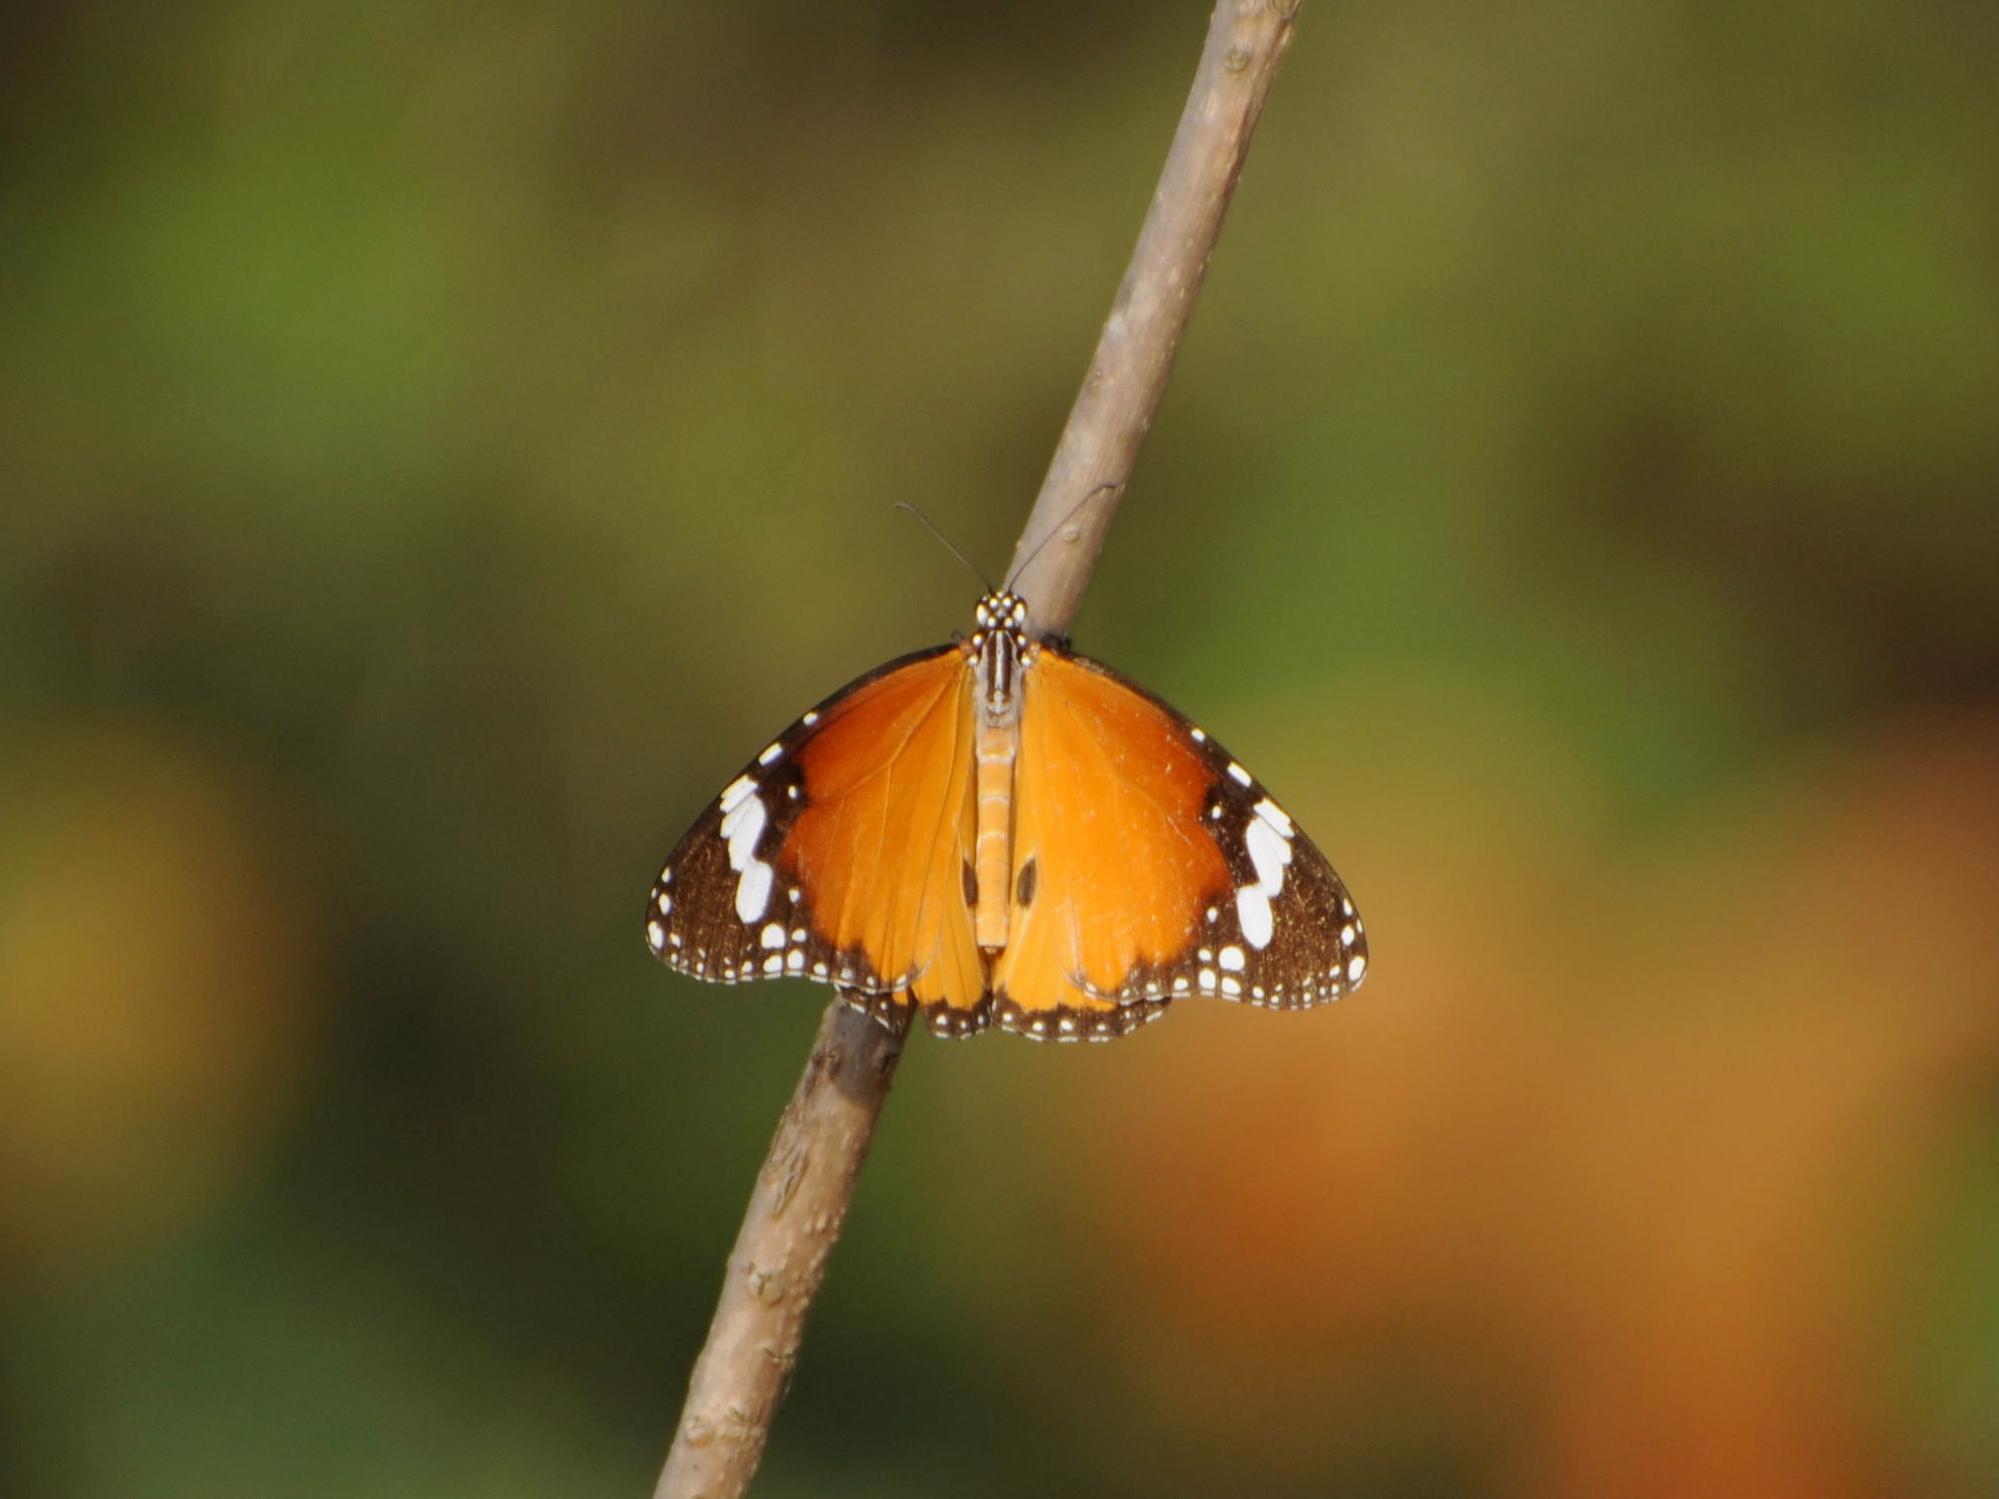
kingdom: Animalia
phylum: Arthropoda
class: Insecta
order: Lepidoptera
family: Nymphalidae
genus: Danaus
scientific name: Danaus chrysippus
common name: Plain tiger
